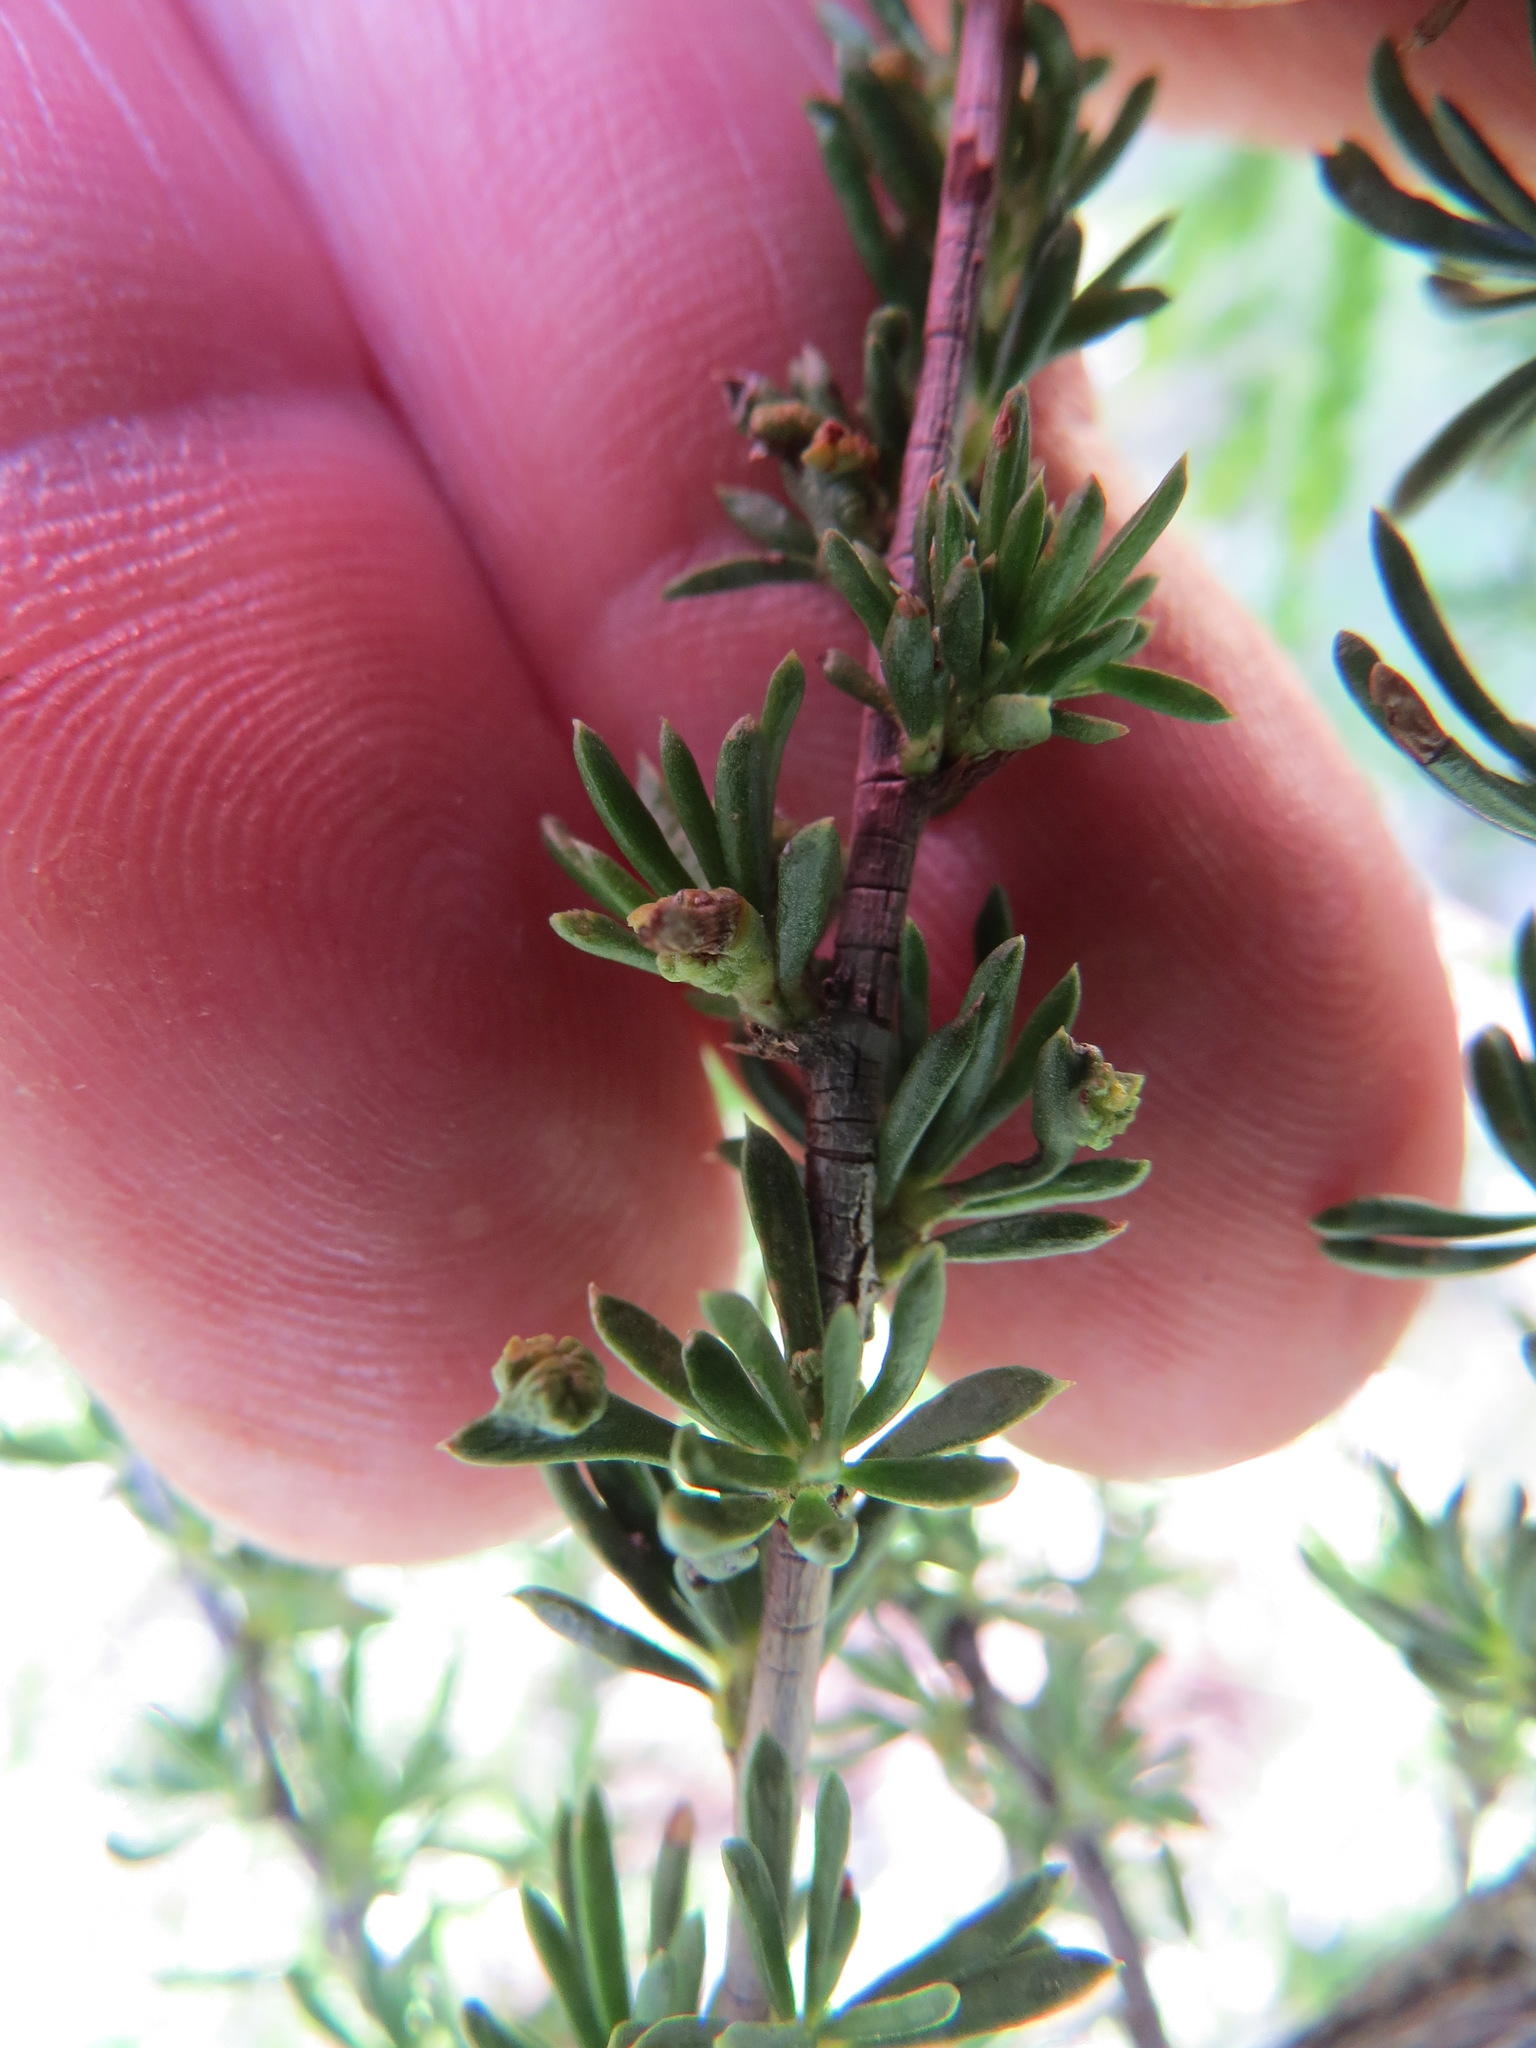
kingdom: Animalia
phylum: Arthropoda
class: Arachnida
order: Trombidiformes
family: Eriophyidae
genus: Eriophyes
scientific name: Eriophyes
